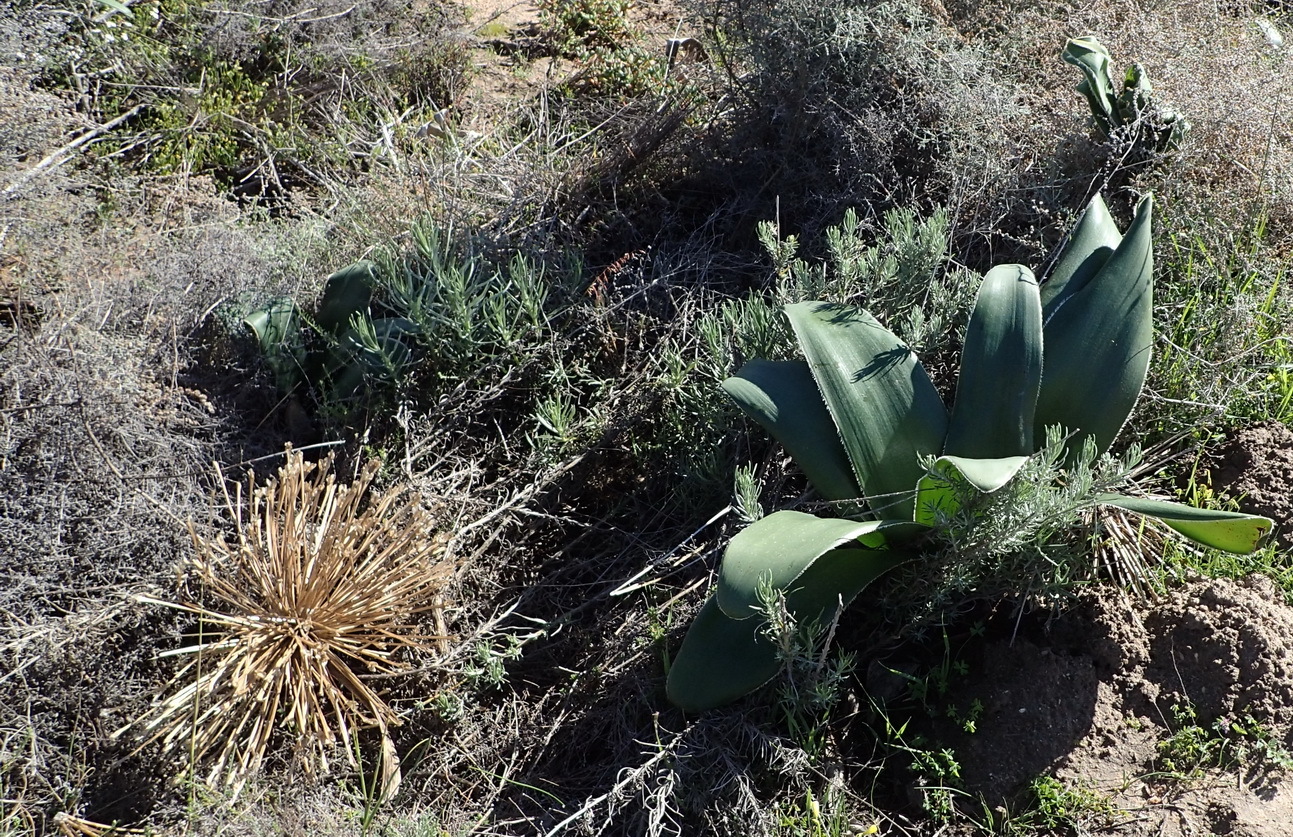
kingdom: Plantae
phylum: Tracheophyta
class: Liliopsida
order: Asparagales
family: Amaryllidaceae
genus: Crossyne
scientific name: Crossyne flava
